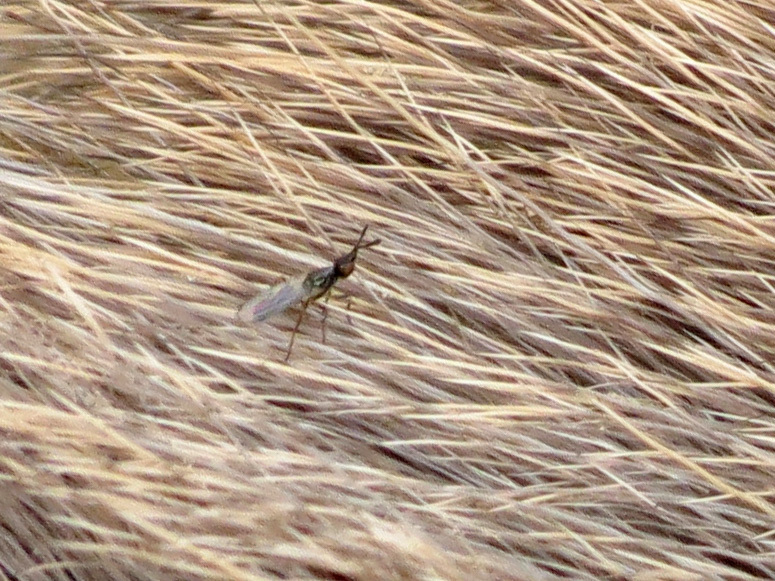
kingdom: Animalia
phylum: Arthropoda
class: Insecta
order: Diptera
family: Piophilidae
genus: Prochyliza
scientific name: Prochyliza xanthostoma
